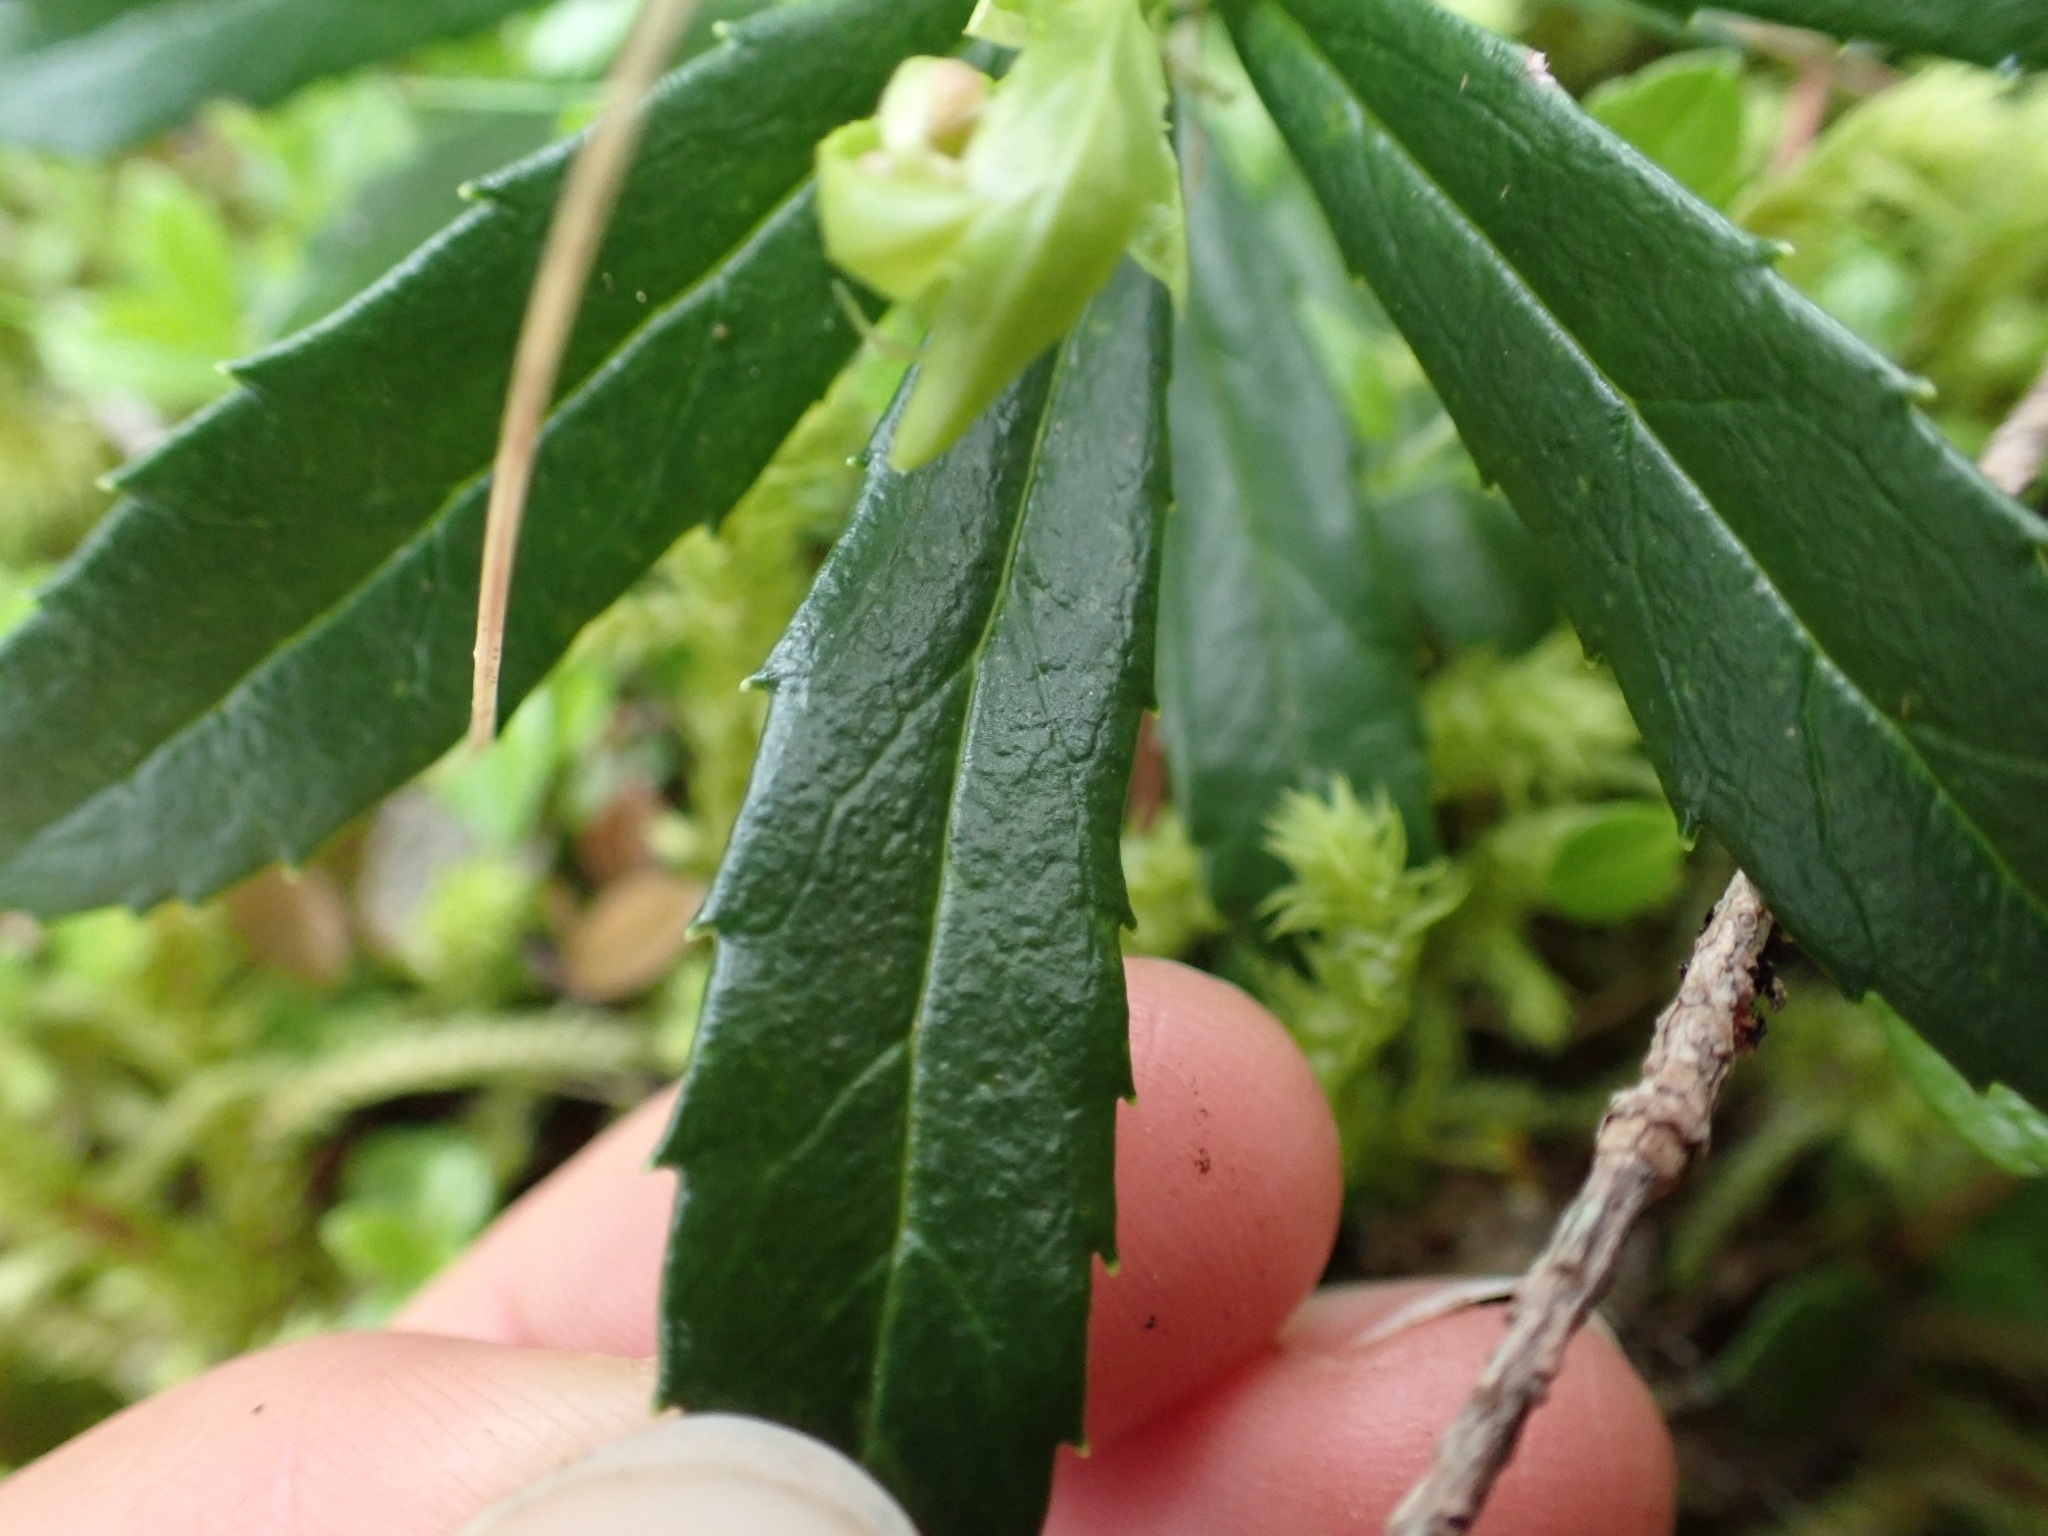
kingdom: Plantae
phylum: Tracheophyta
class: Magnoliopsida
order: Ericales
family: Ericaceae
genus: Chimaphila
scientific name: Chimaphila umbellata
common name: Pipsissewa
